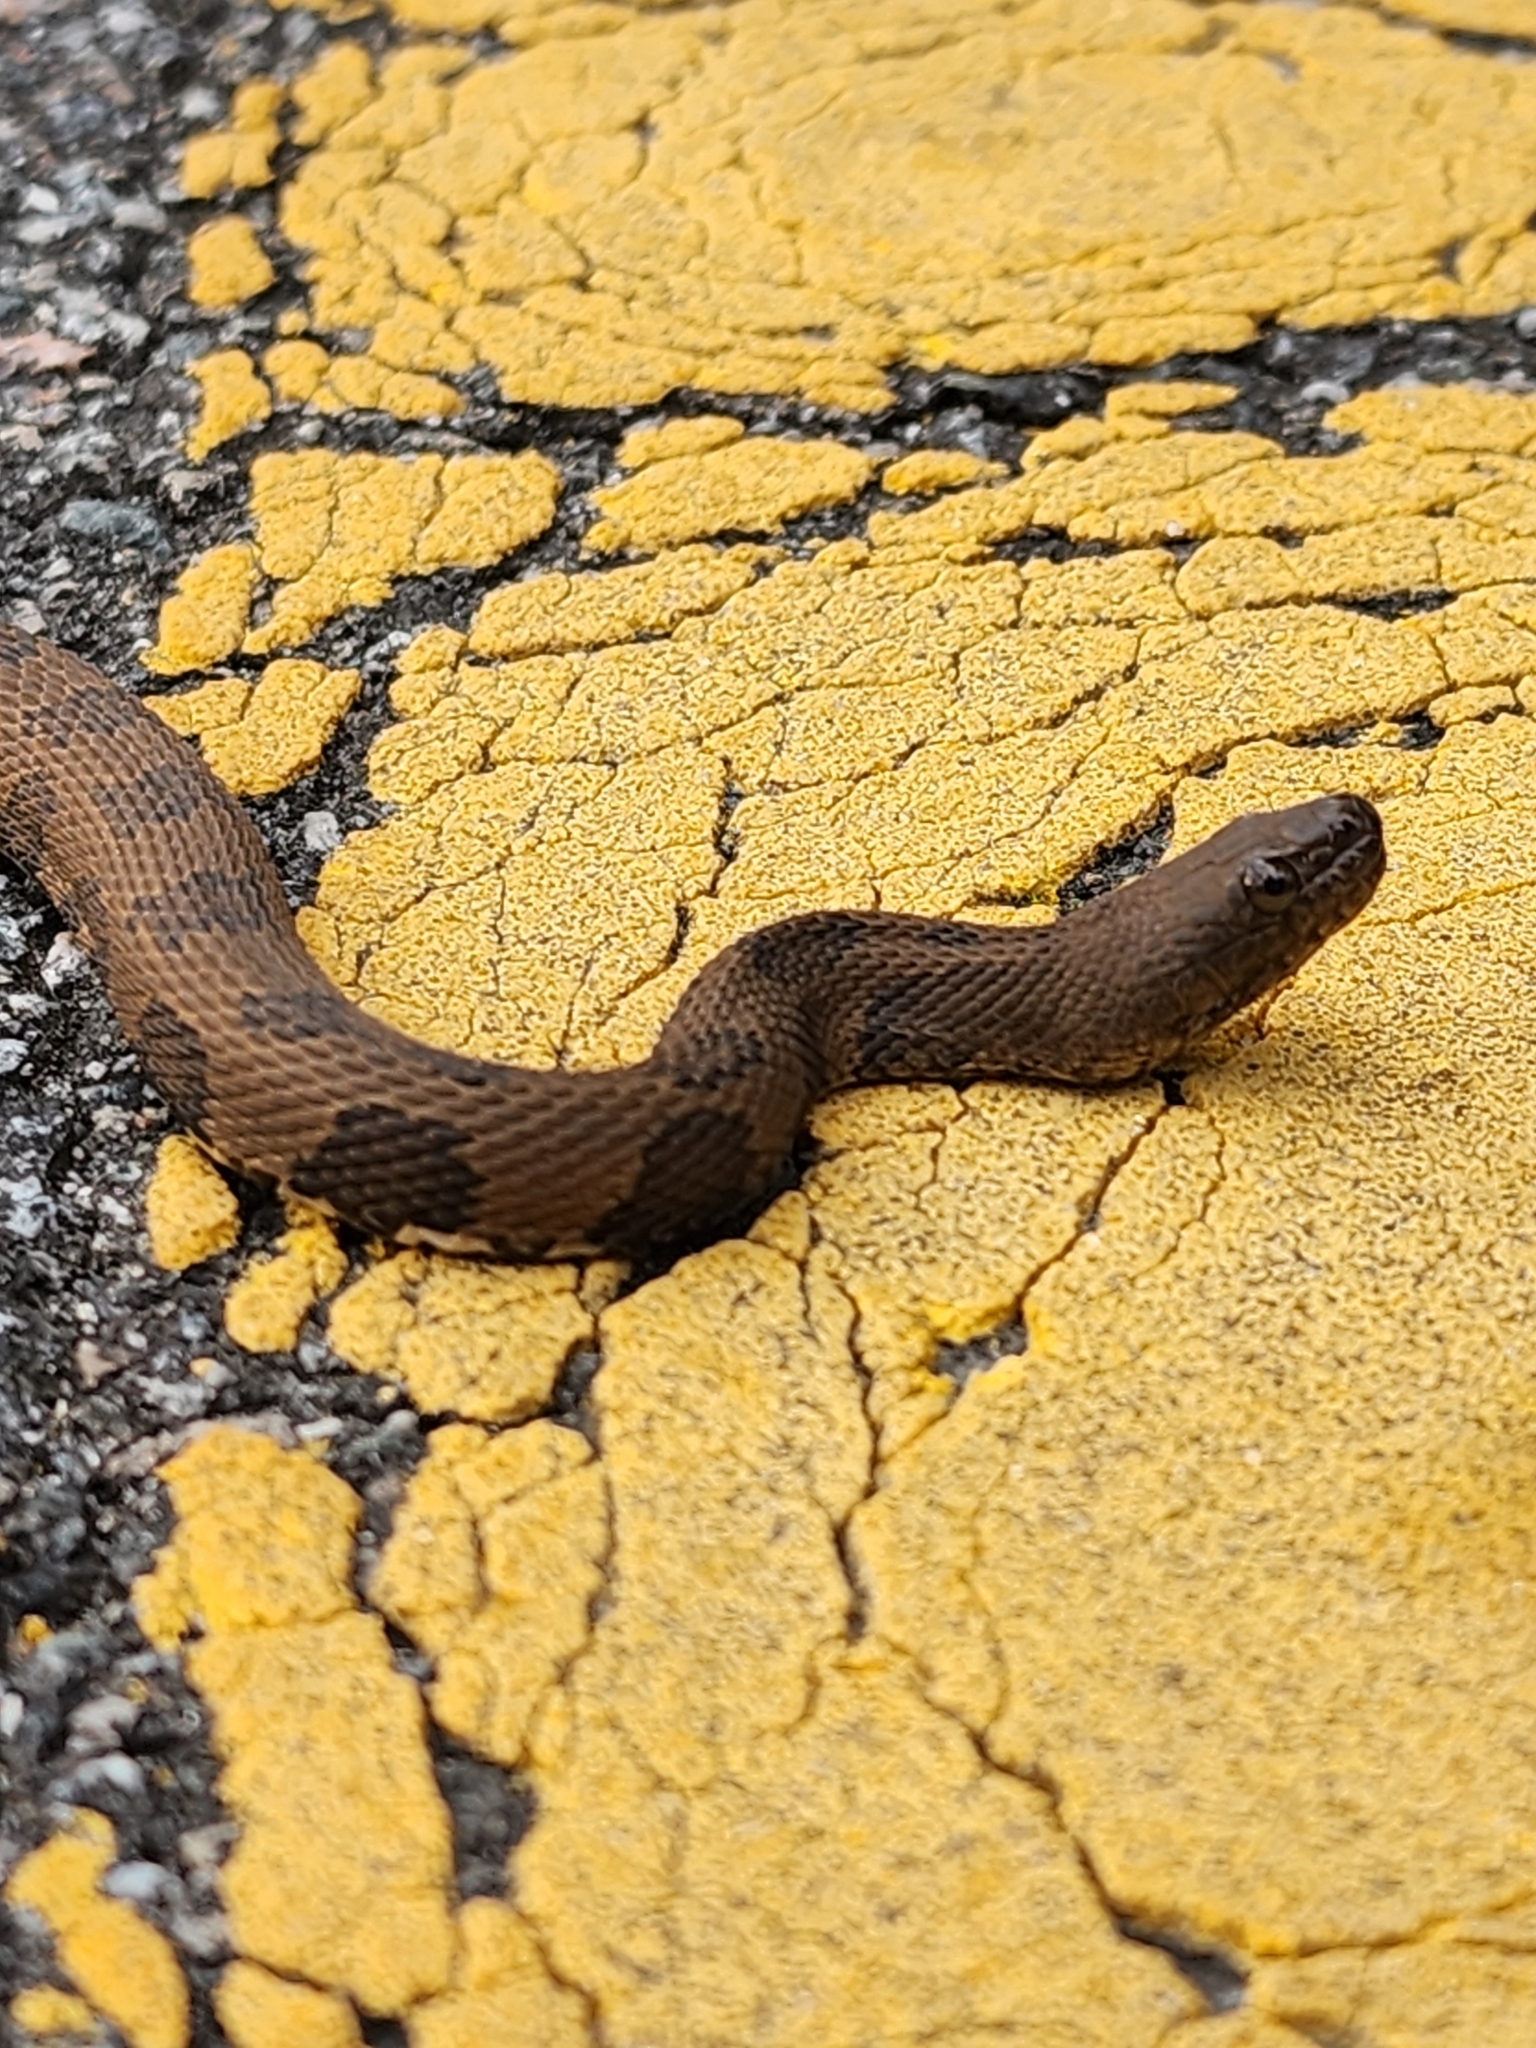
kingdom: Animalia
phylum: Chordata
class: Squamata
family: Colubridae
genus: Nerodia
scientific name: Nerodia taxispilota
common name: Brown water snake
